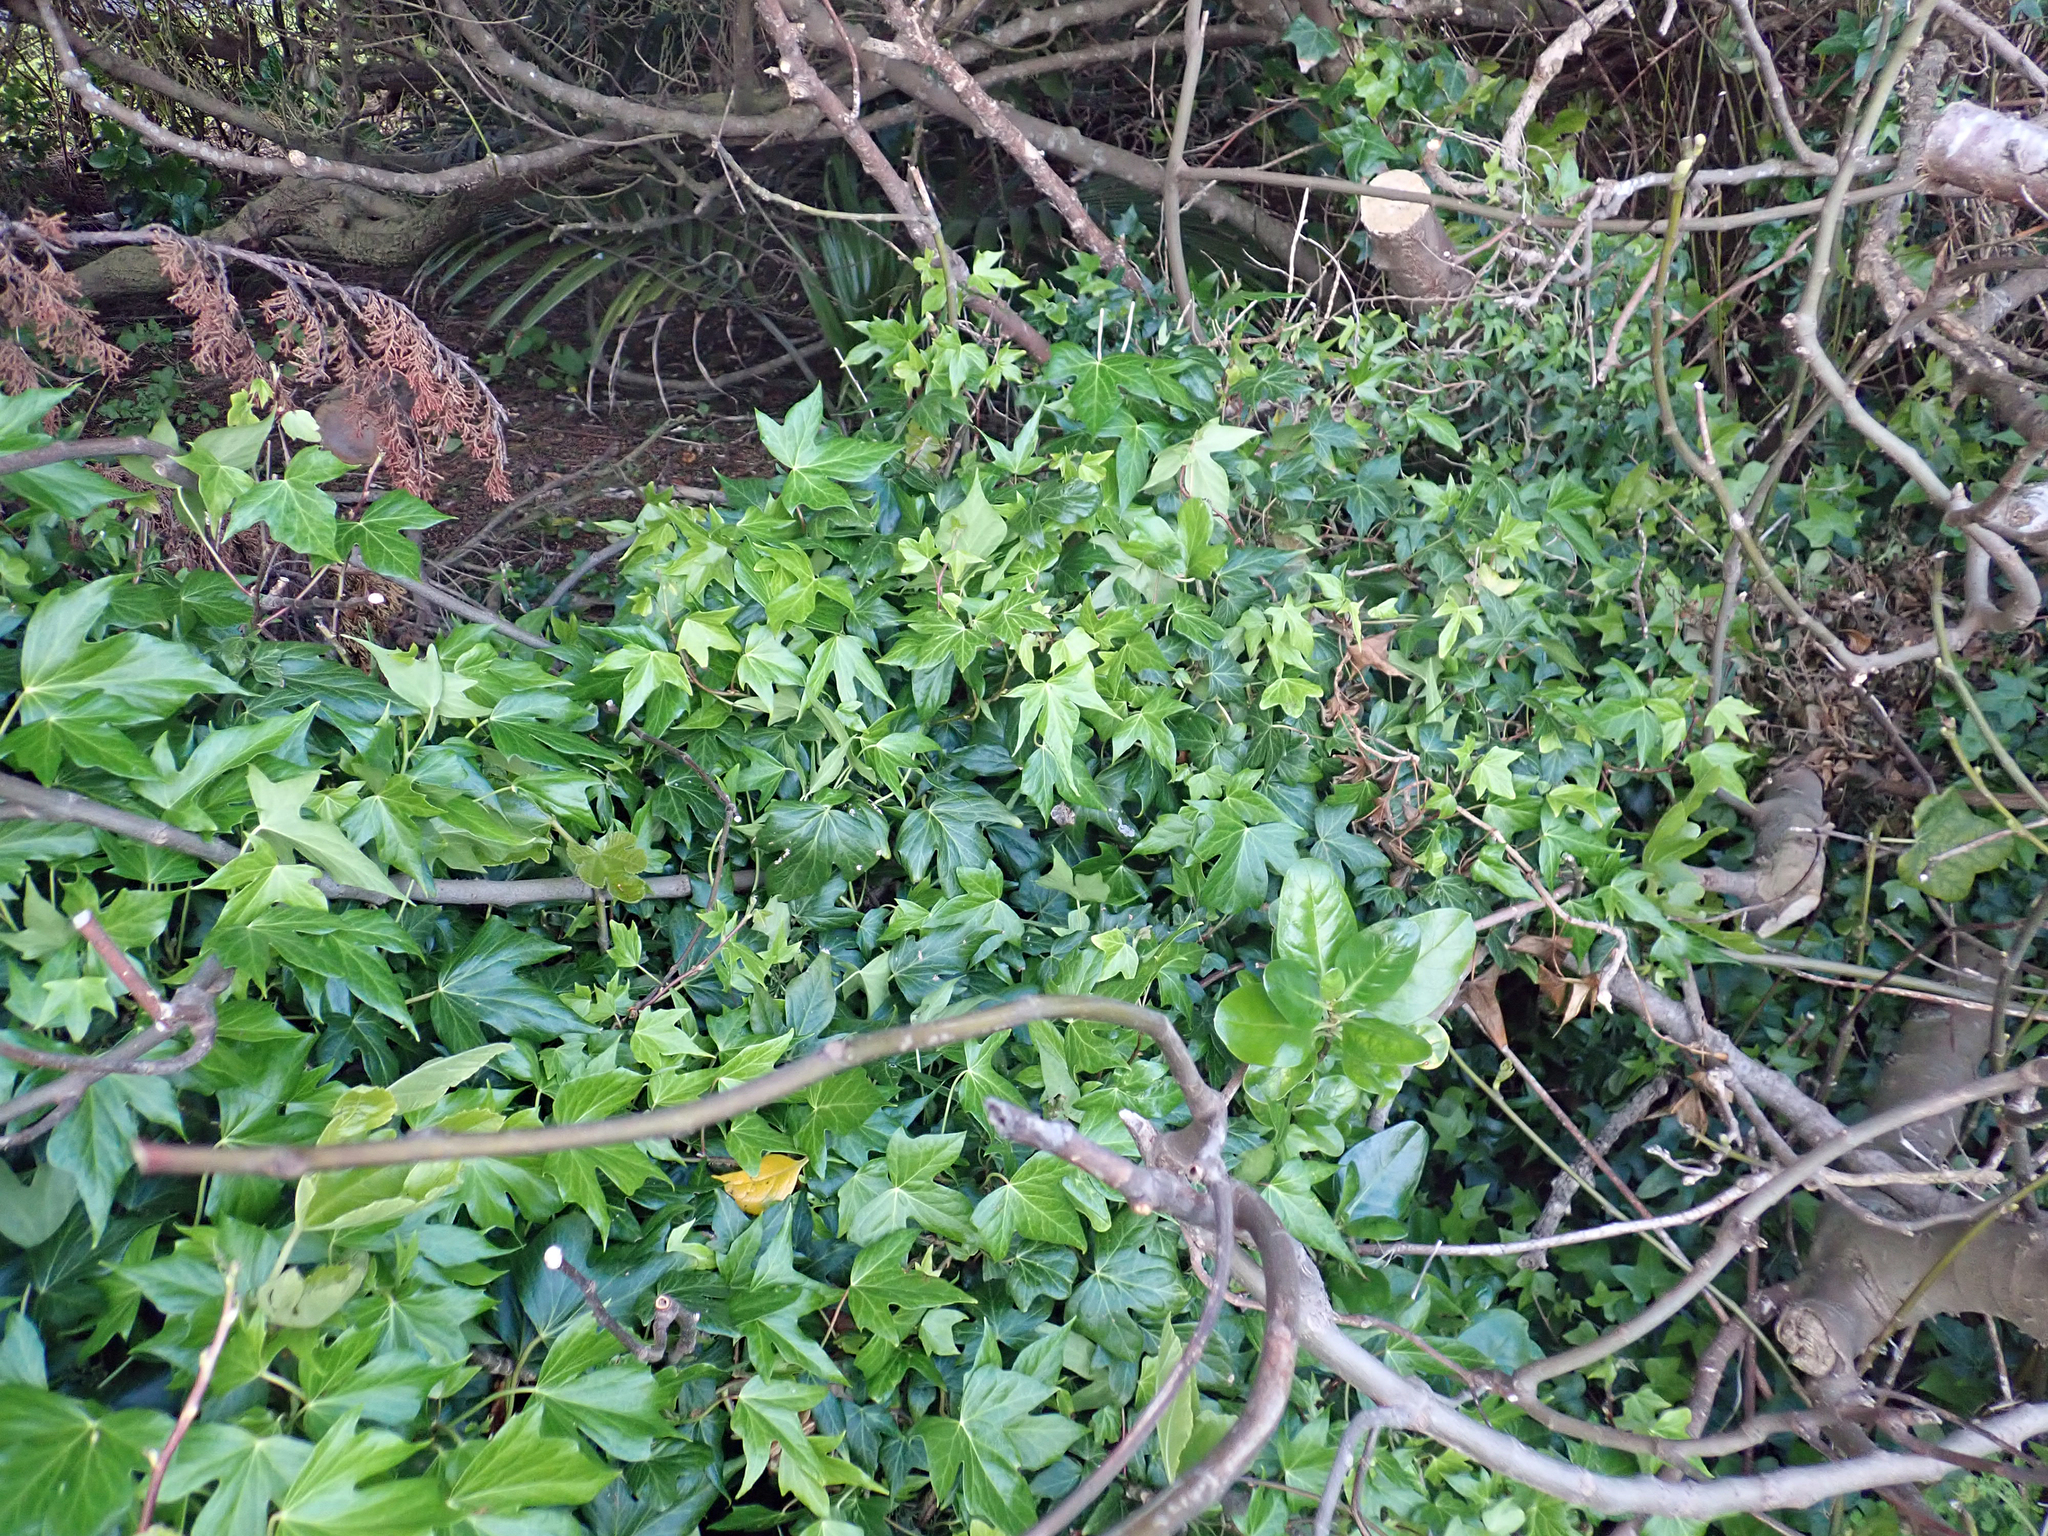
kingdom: Plantae
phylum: Tracheophyta
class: Magnoliopsida
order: Apiales
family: Araliaceae
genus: Hedera
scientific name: Hedera helix
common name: Ivy
